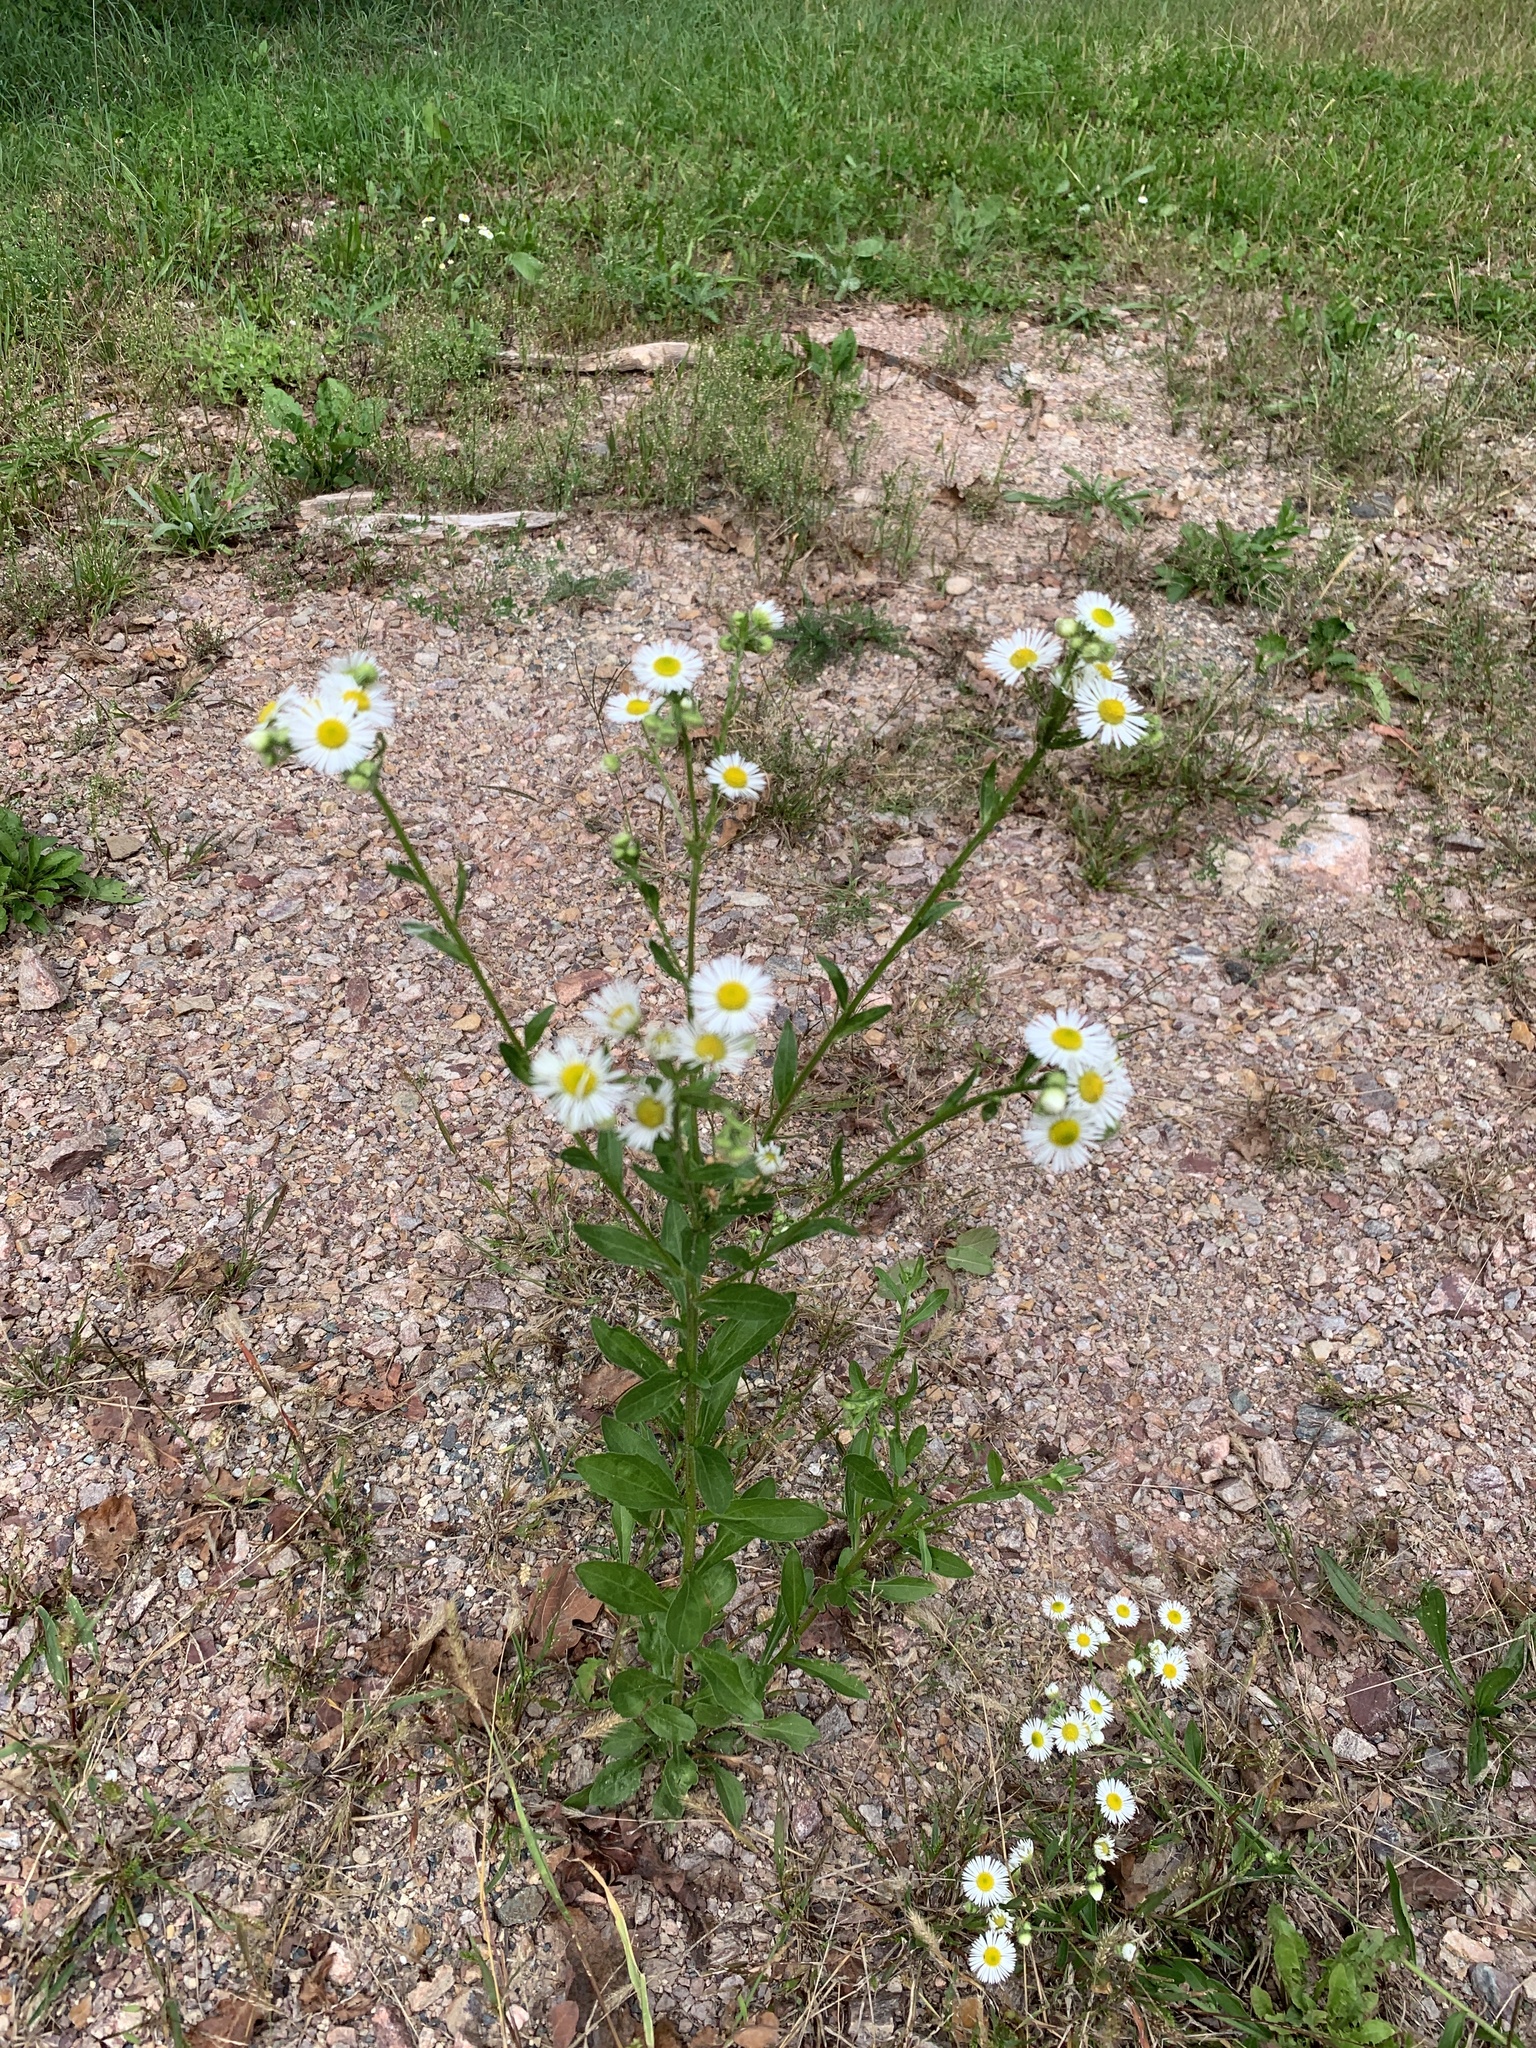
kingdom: Plantae
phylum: Tracheophyta
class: Magnoliopsida
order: Asterales
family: Asteraceae
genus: Erigeron
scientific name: Erigeron annuus
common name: Tall fleabane
